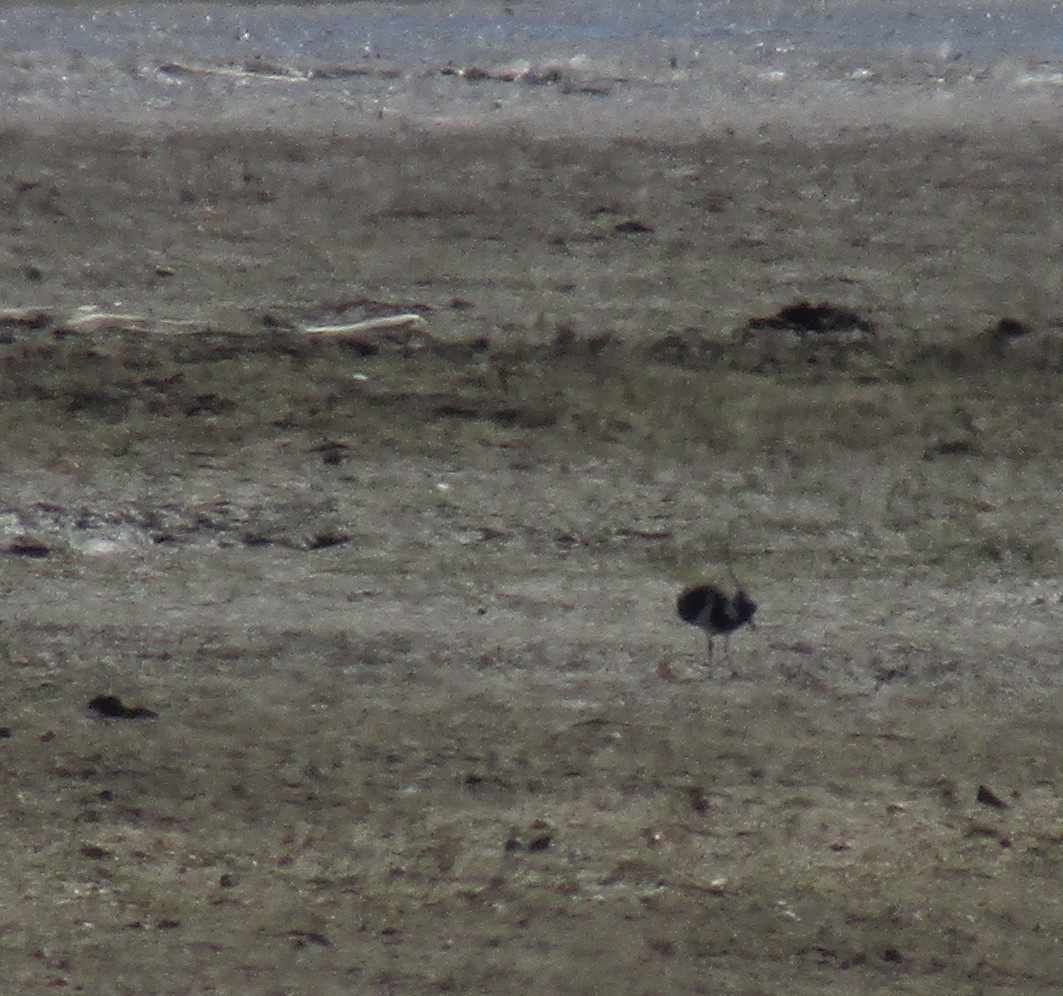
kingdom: Animalia
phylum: Chordata
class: Aves
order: Charadriiformes
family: Charadriidae
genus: Vanellus
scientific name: Vanellus vanellus
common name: Northern lapwing
